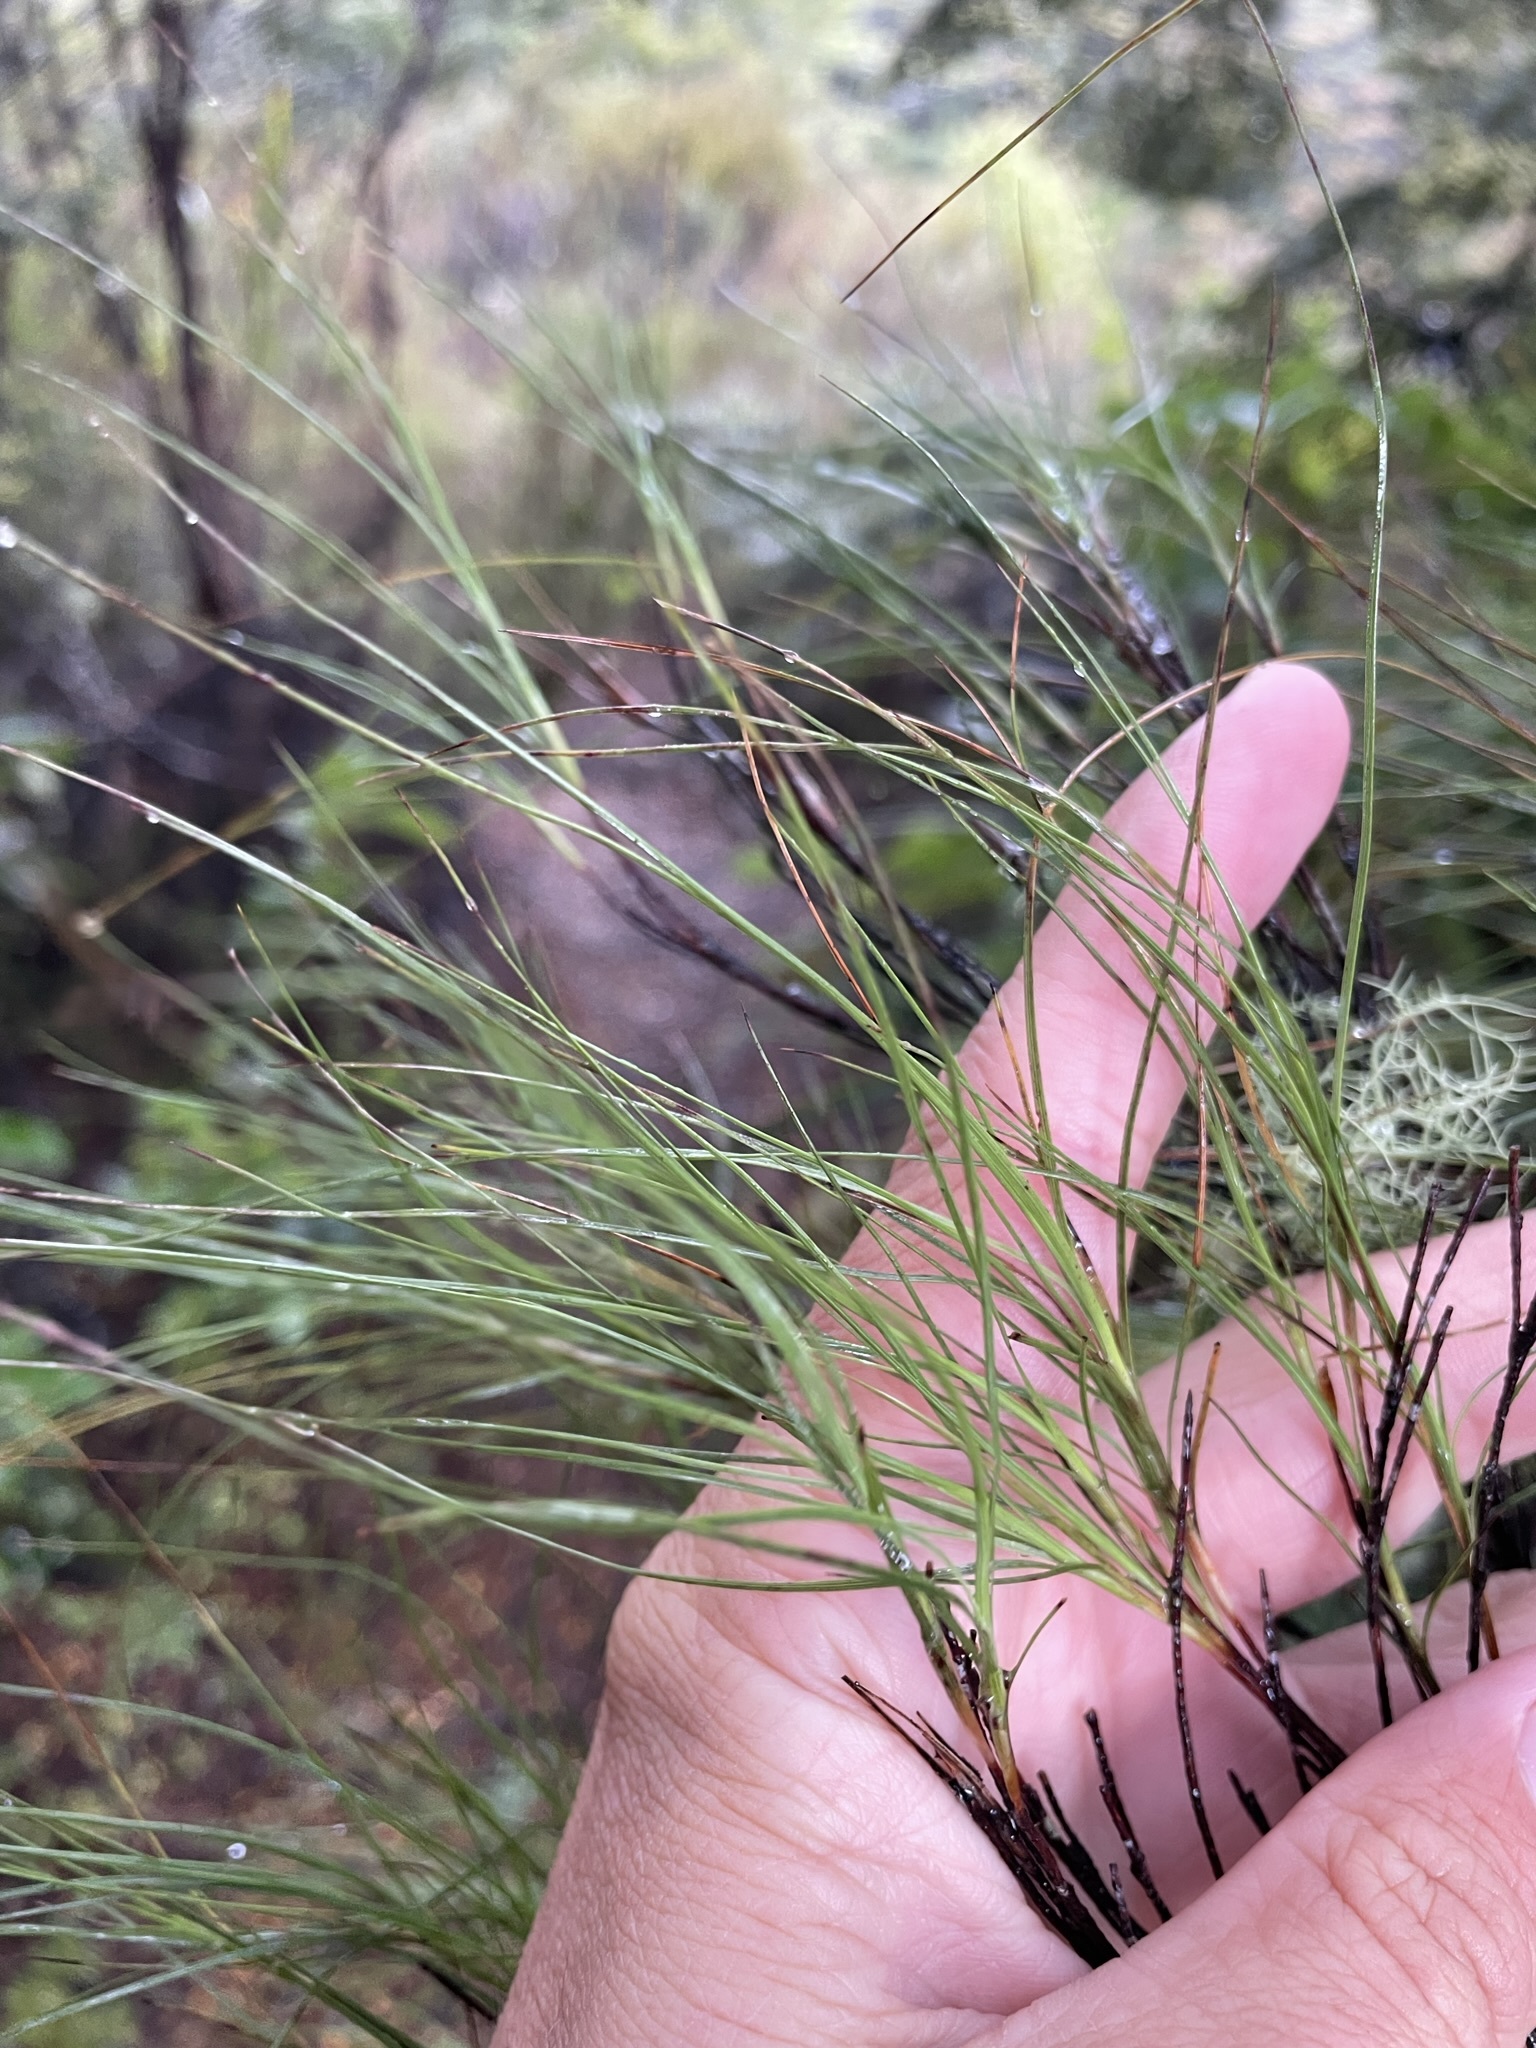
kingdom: Plantae
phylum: Tracheophyta
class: Magnoliopsida
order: Ericales
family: Ericaceae
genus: Dracophyllum
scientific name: Dracophyllum filifolium
